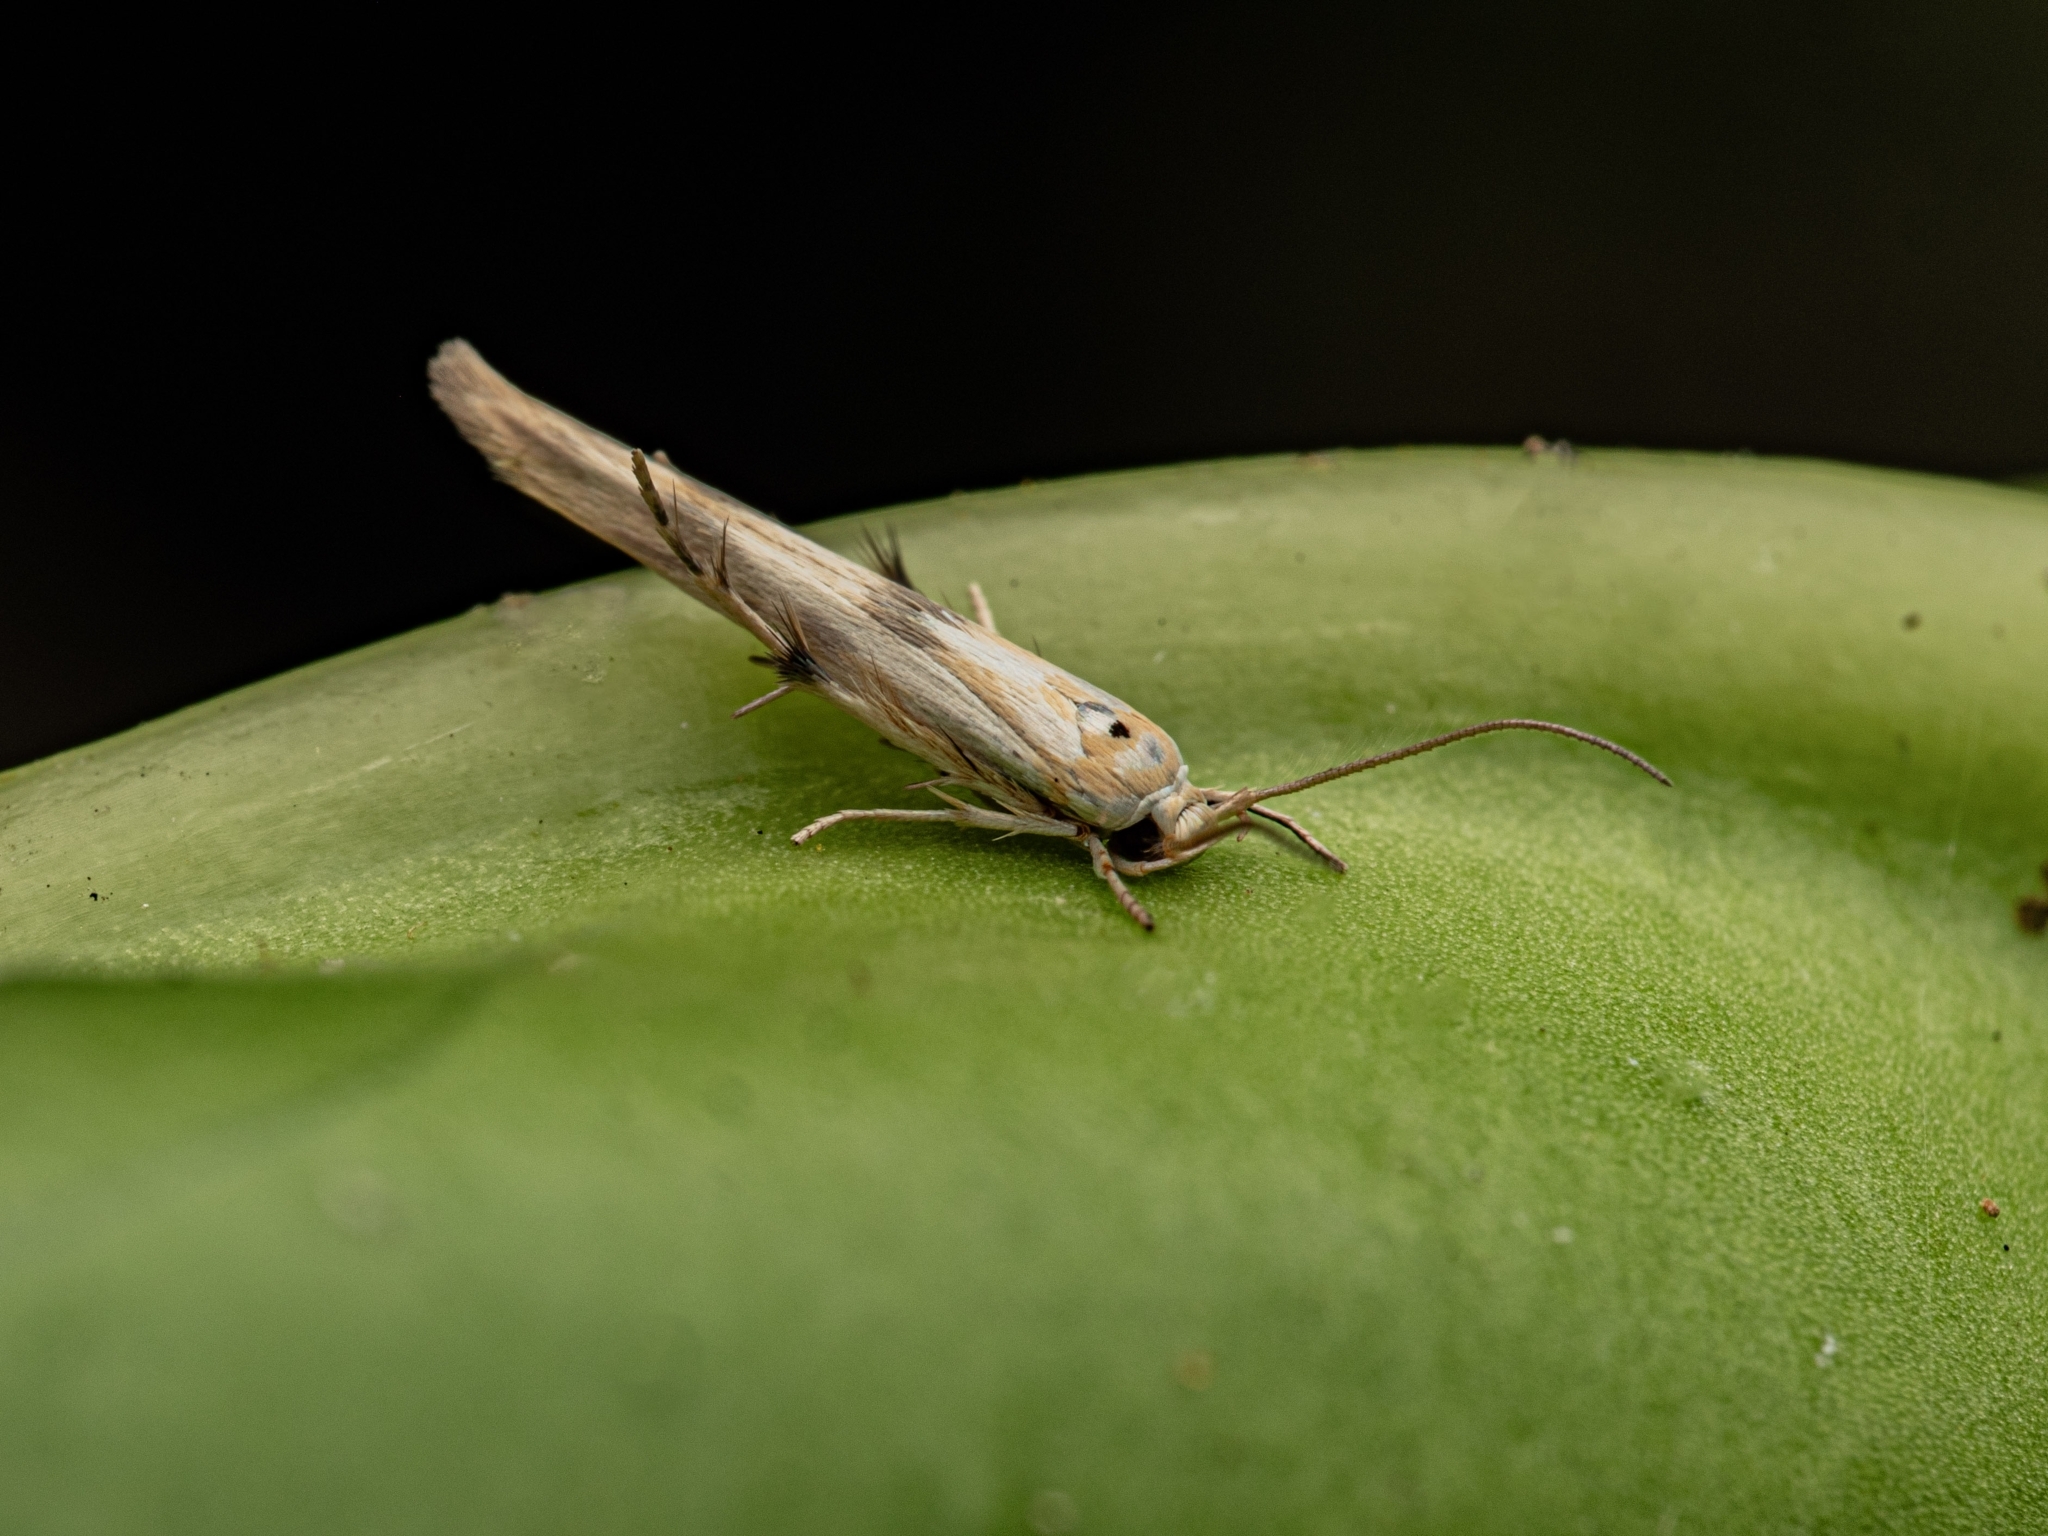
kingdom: Animalia
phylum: Arthropoda
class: Insecta
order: Lepidoptera
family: Stathmopodidae
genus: Stathmopoda
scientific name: Stathmopoda aposema
